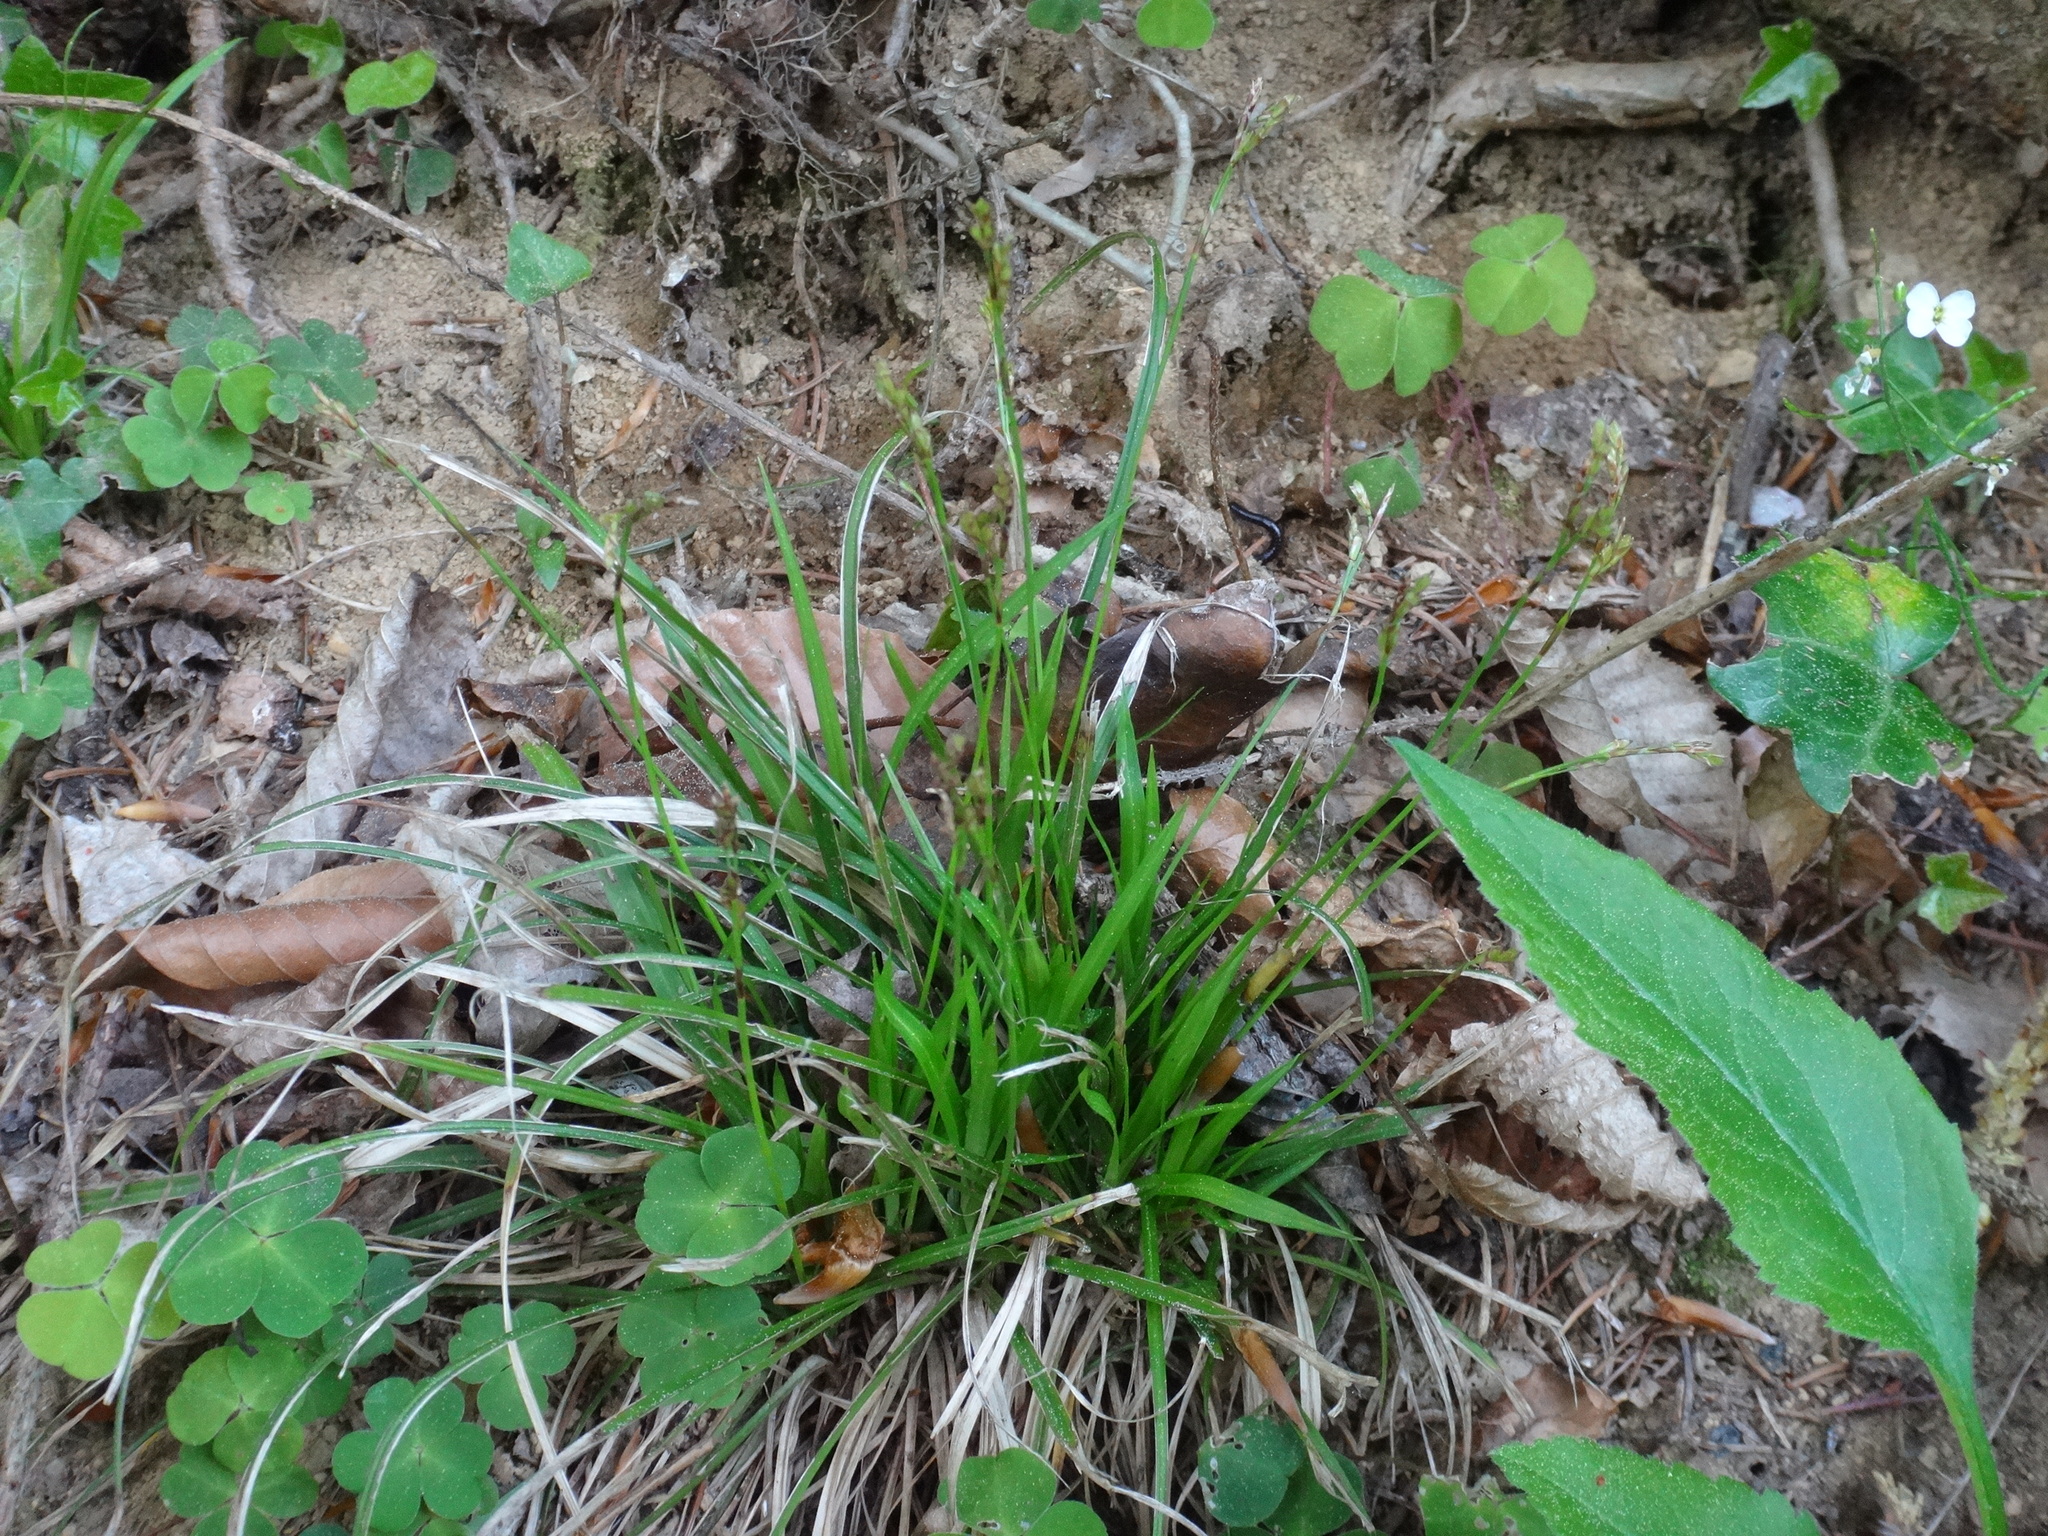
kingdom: Plantae
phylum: Tracheophyta
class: Liliopsida
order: Poales
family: Cyperaceae
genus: Carex
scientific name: Carex digitata
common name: Fingered sedge
